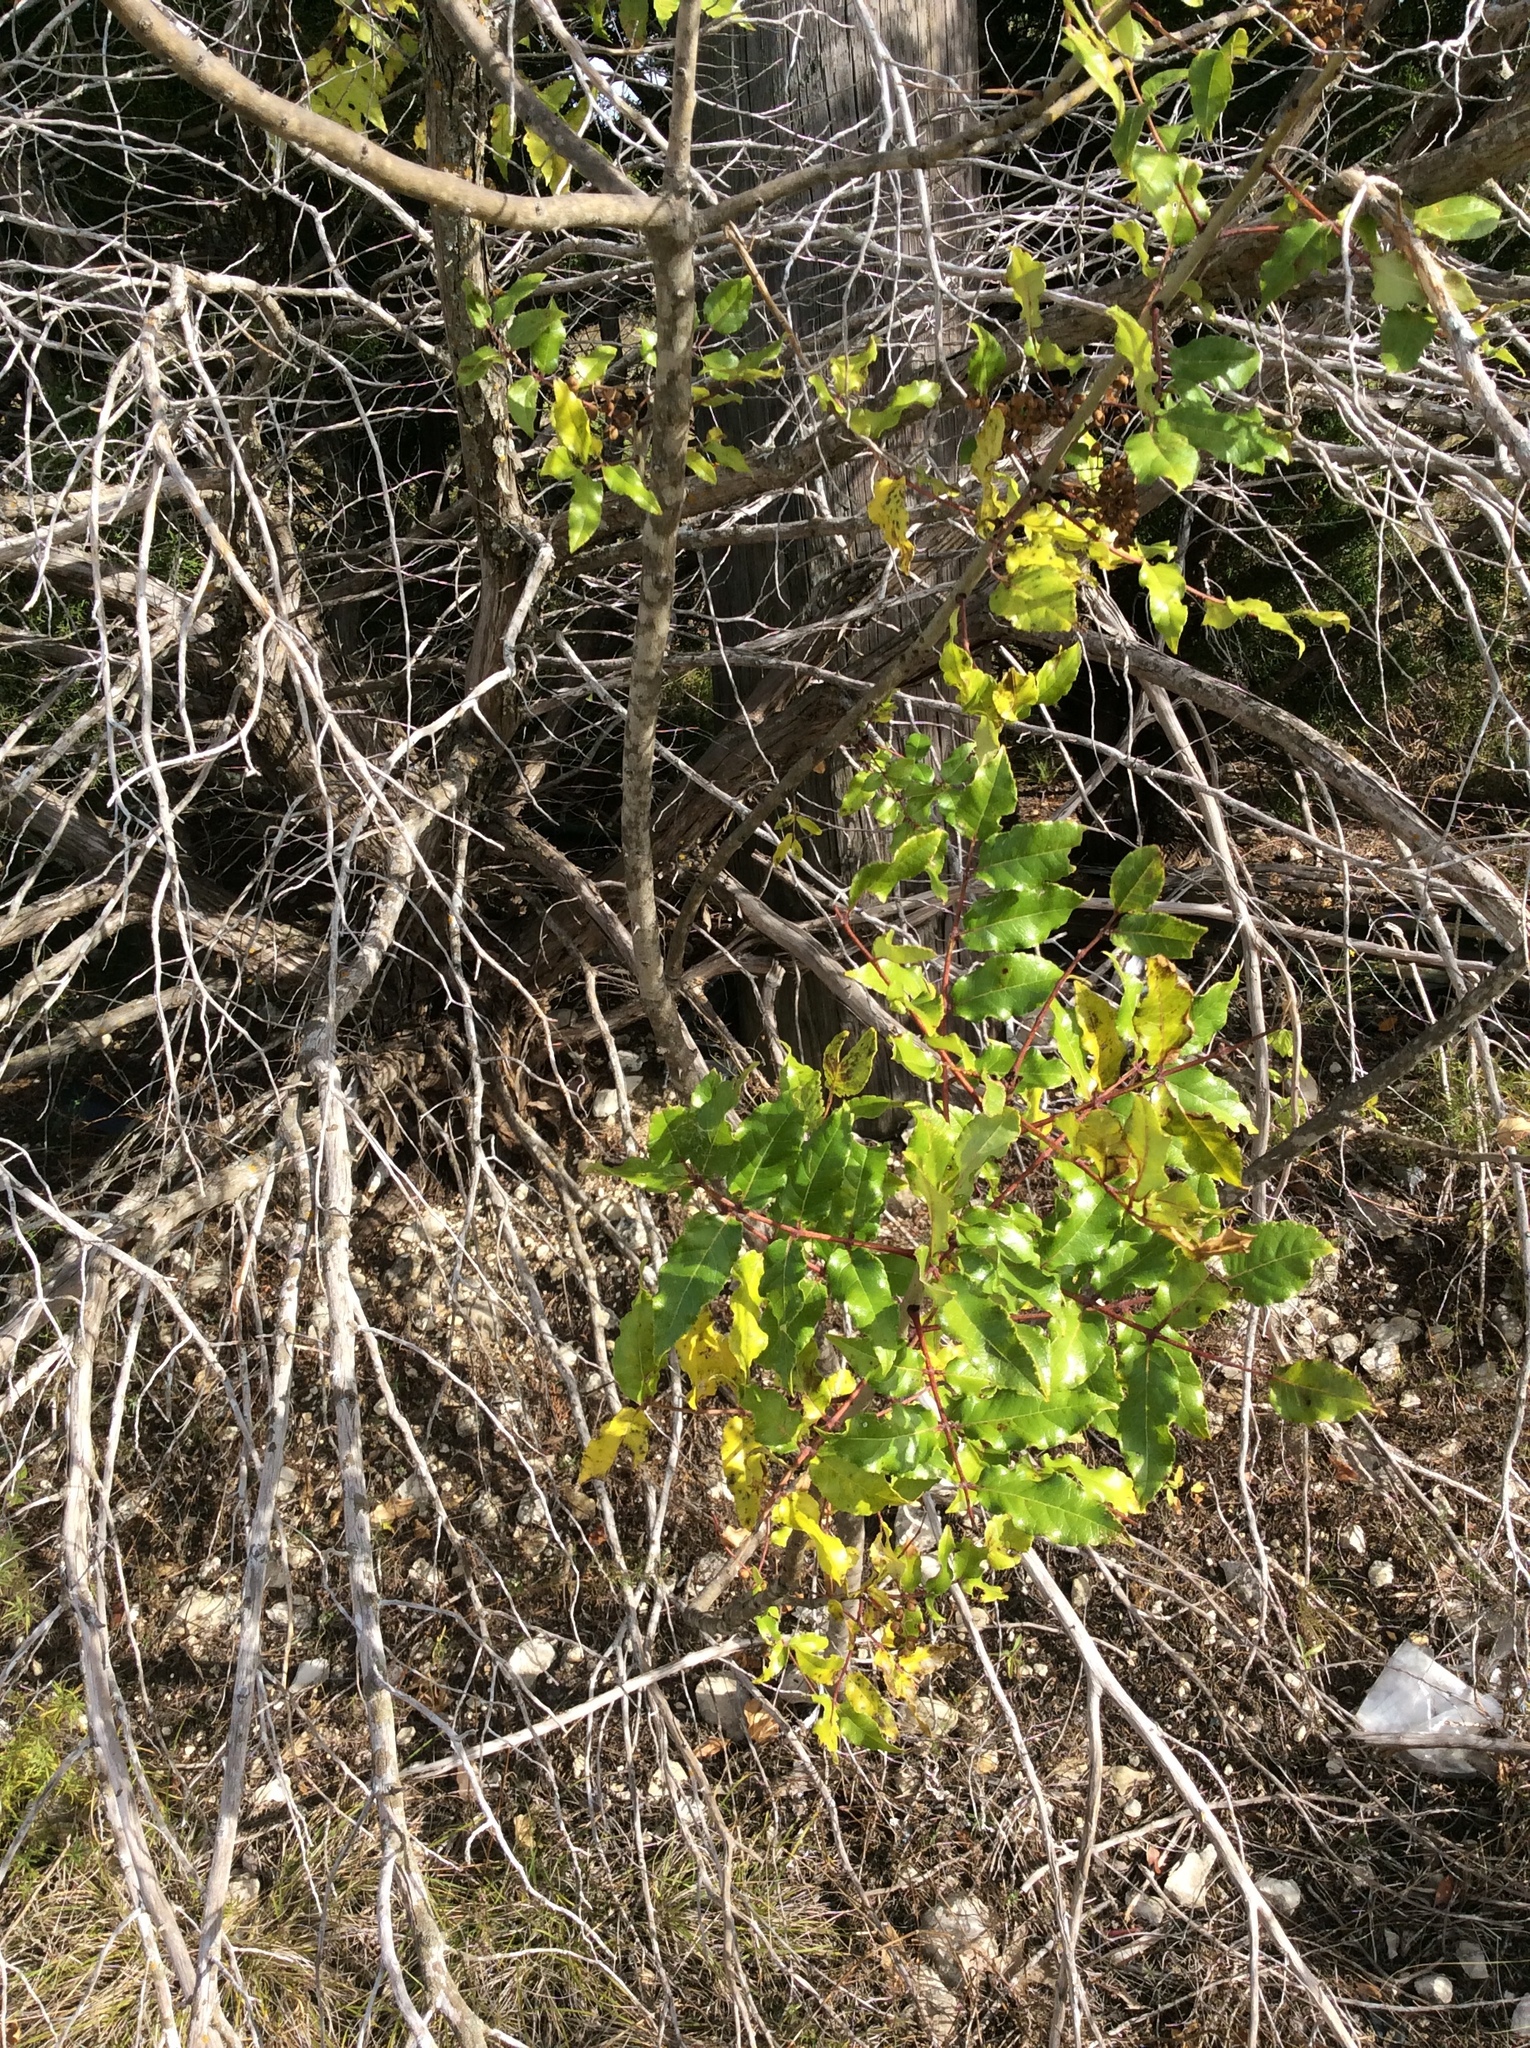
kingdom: Plantae
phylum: Tracheophyta
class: Magnoliopsida
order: Sapindales
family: Rutaceae
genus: Zanthoxylum
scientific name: Zanthoxylum clava-herculis
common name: Hercules'-club
